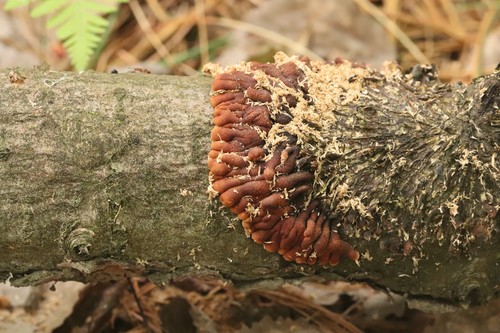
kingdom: Fungi
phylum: Ascomycota
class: Sordariomycetes
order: Hypocreales
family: Hypocreaceae
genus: Hypocreopsis
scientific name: Hypocreopsis lichenoides
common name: Willow gloves
